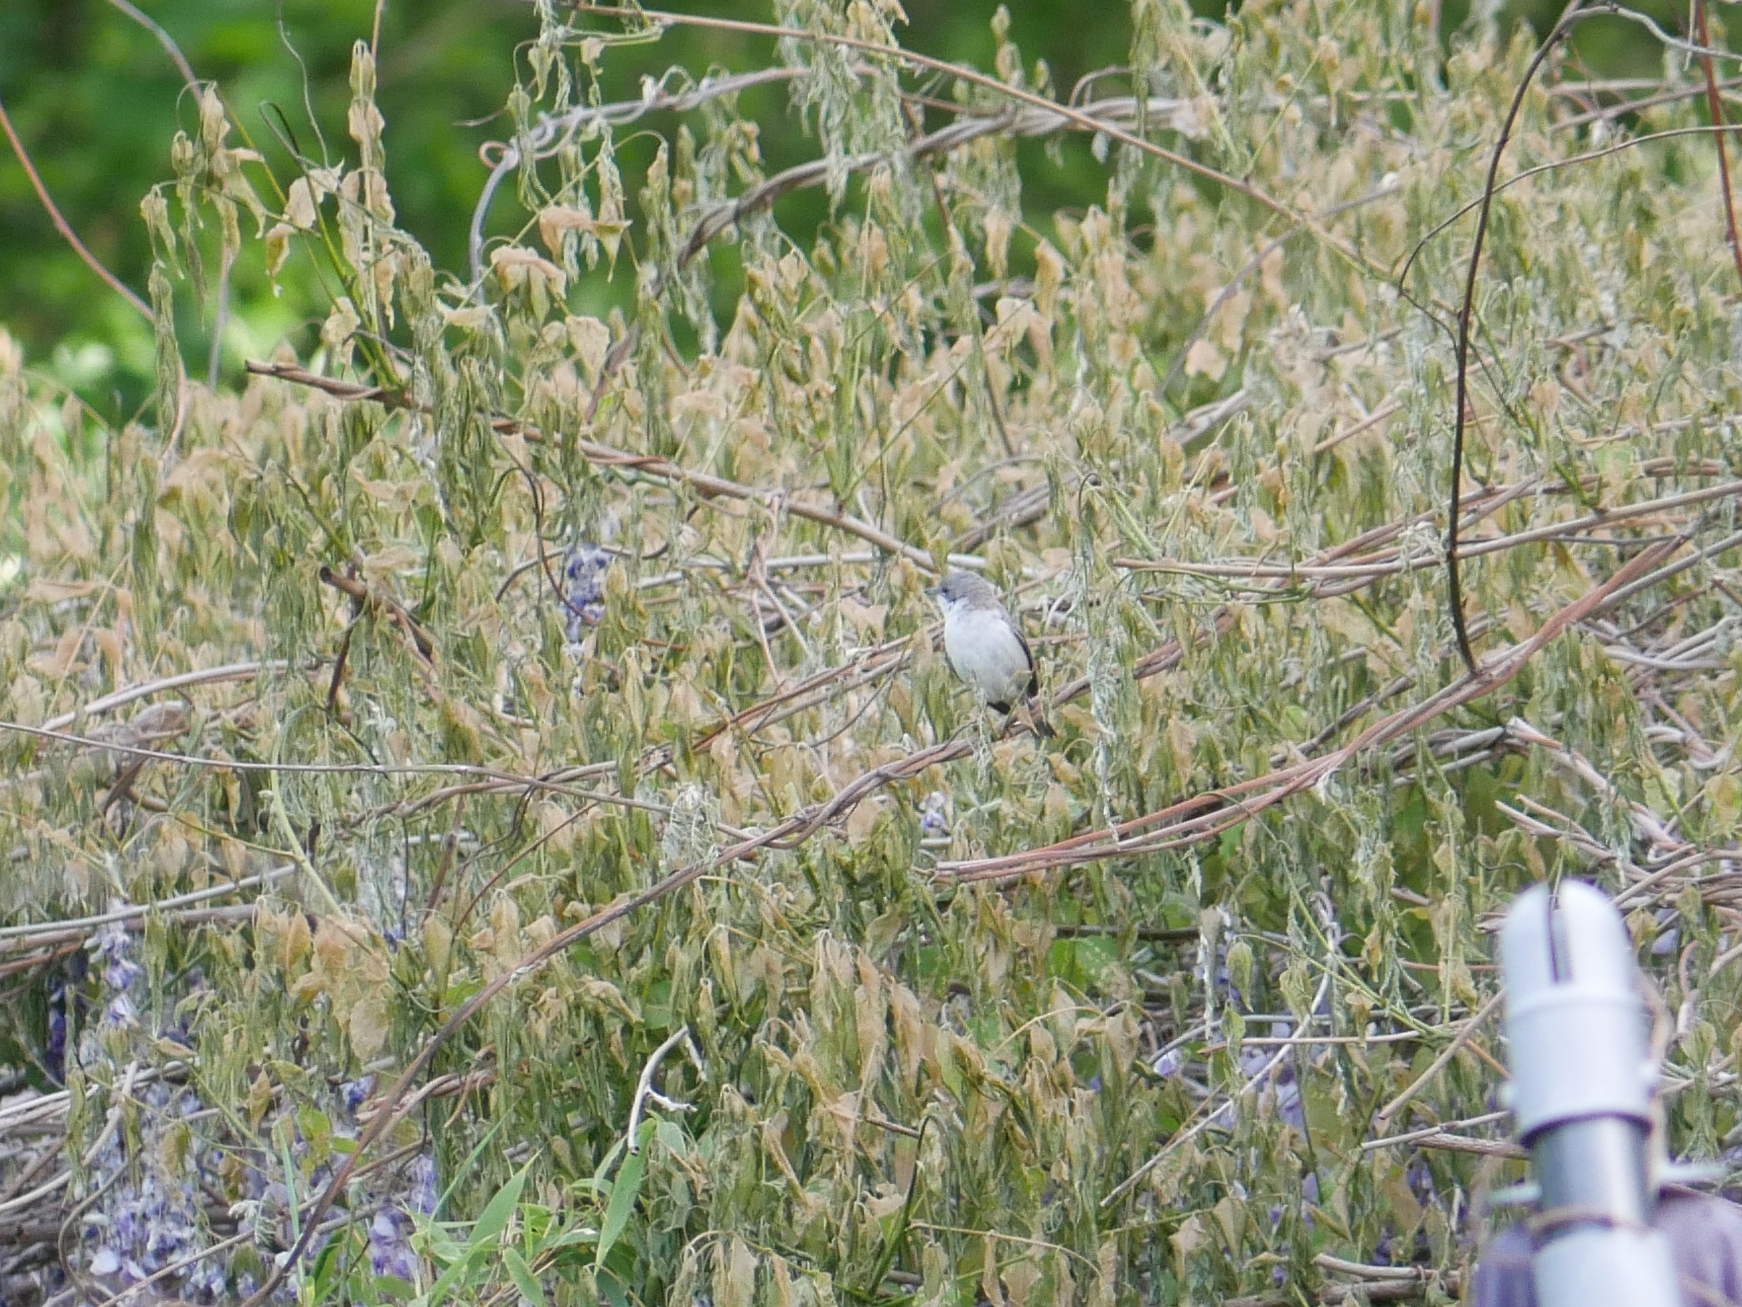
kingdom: Animalia
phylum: Chordata
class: Aves
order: Passeriformes
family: Sylviidae
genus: Sylvia
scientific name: Sylvia curruca
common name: Lesser whitethroat
